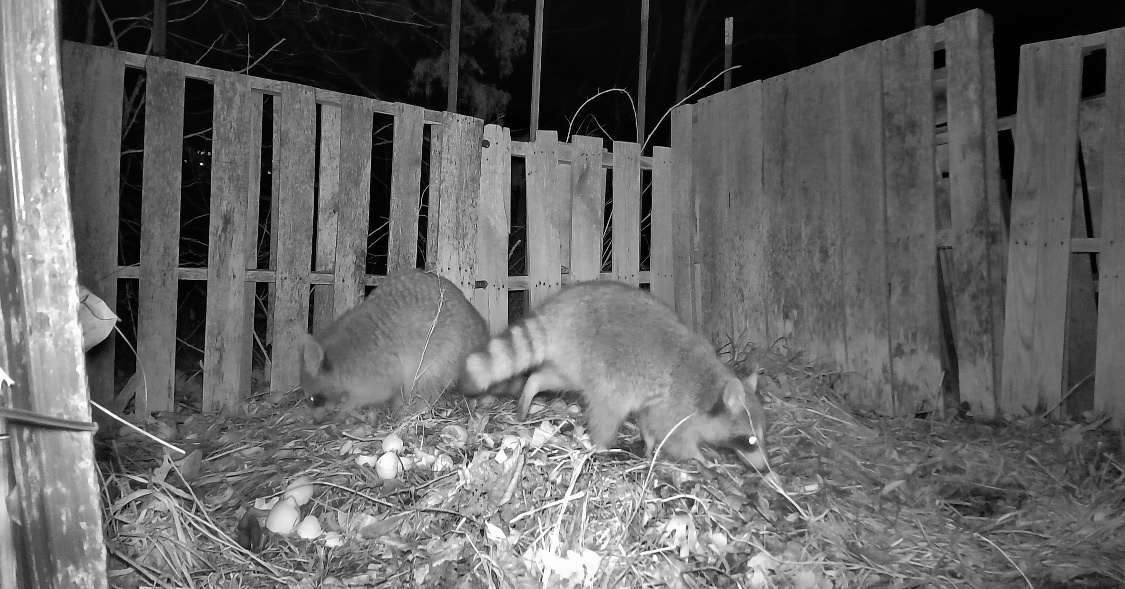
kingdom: Animalia
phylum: Chordata
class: Mammalia
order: Carnivora
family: Procyonidae
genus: Procyon
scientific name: Procyon lotor
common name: Raccoon
